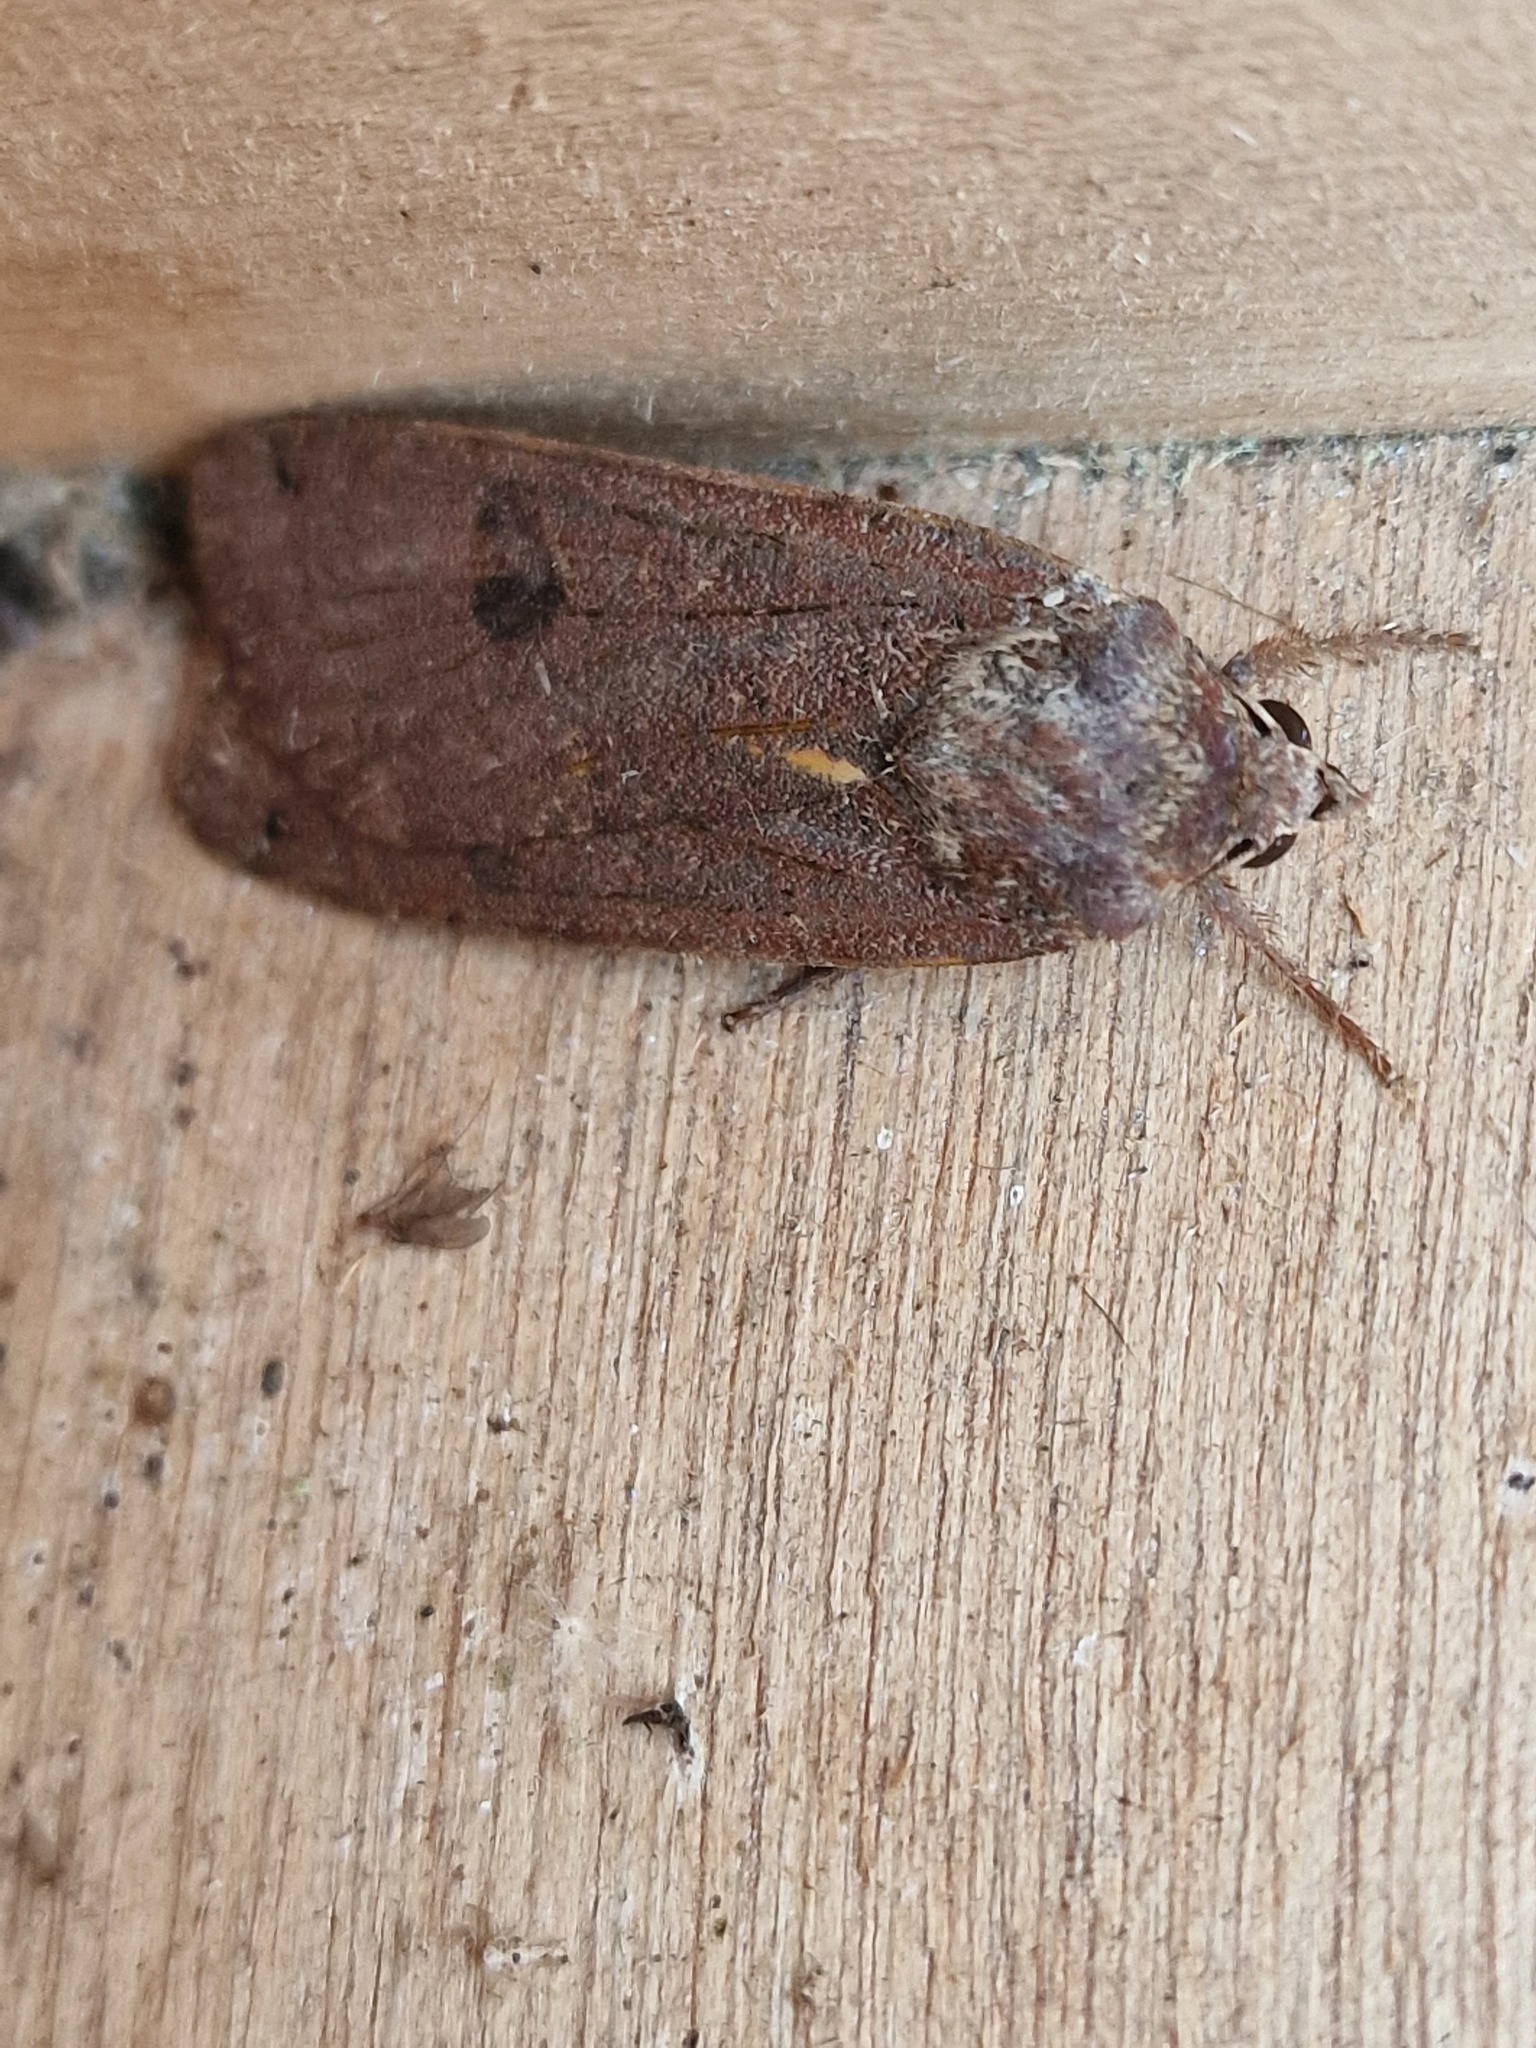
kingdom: Animalia
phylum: Arthropoda
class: Insecta
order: Lepidoptera
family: Noctuidae
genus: Noctua
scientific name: Noctua pronuba
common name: Large yellow underwing
